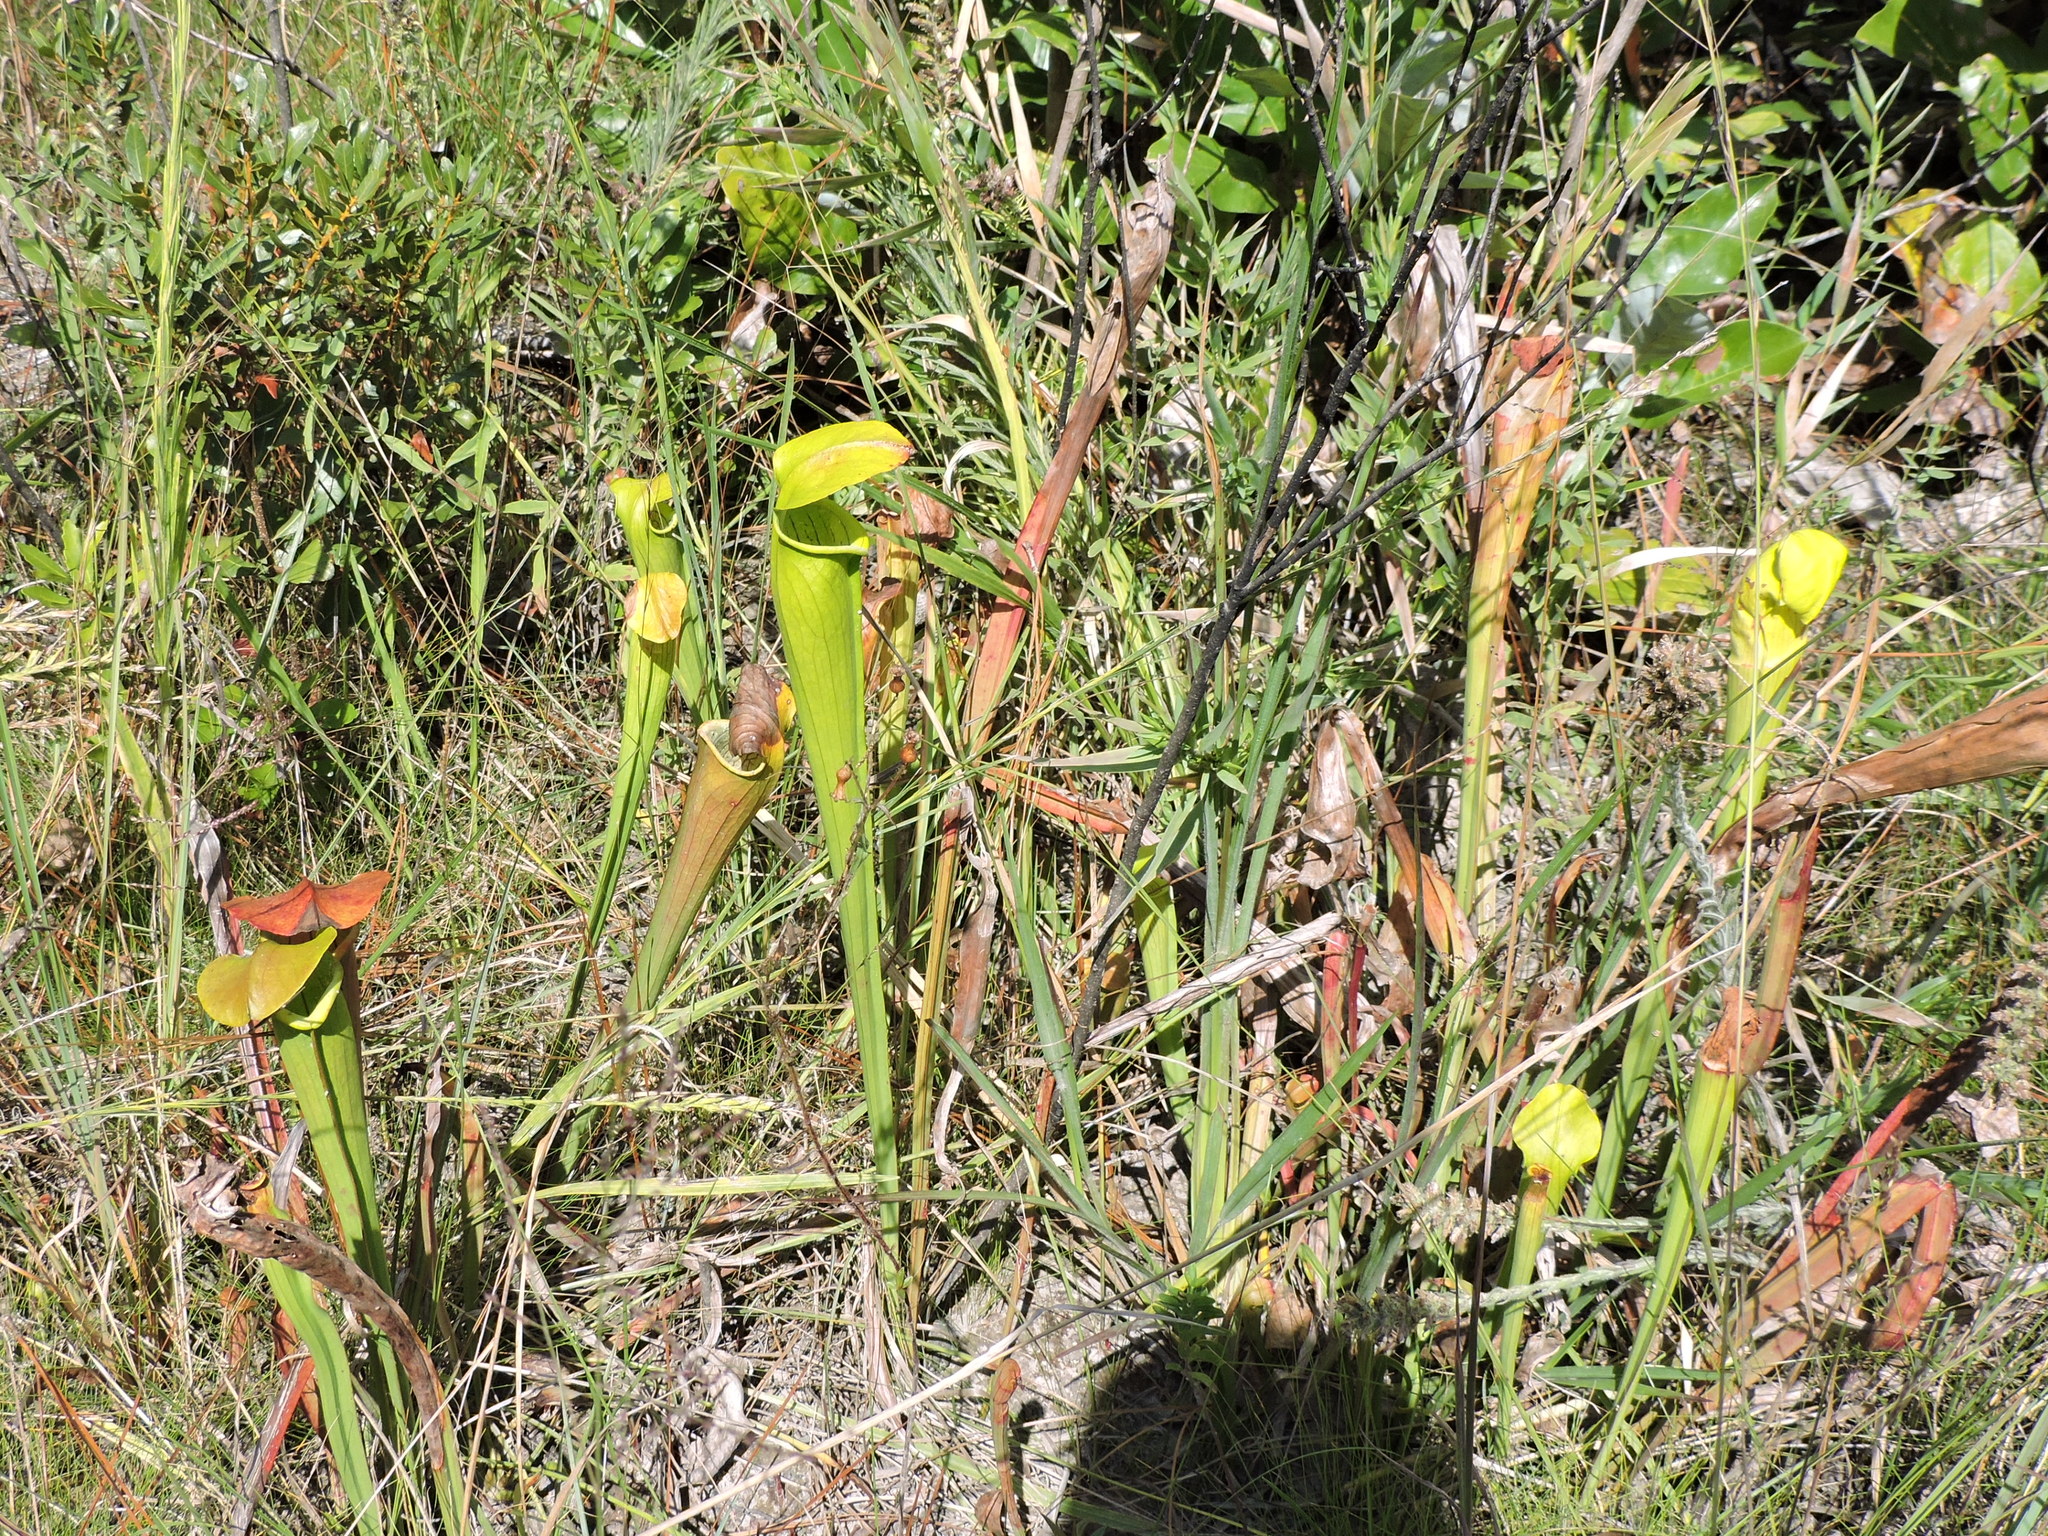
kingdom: Plantae
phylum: Tracheophyta
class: Magnoliopsida
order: Ericales
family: Sarraceniaceae
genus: Sarracenia
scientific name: Sarracenia alata
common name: Yellow trumpets
